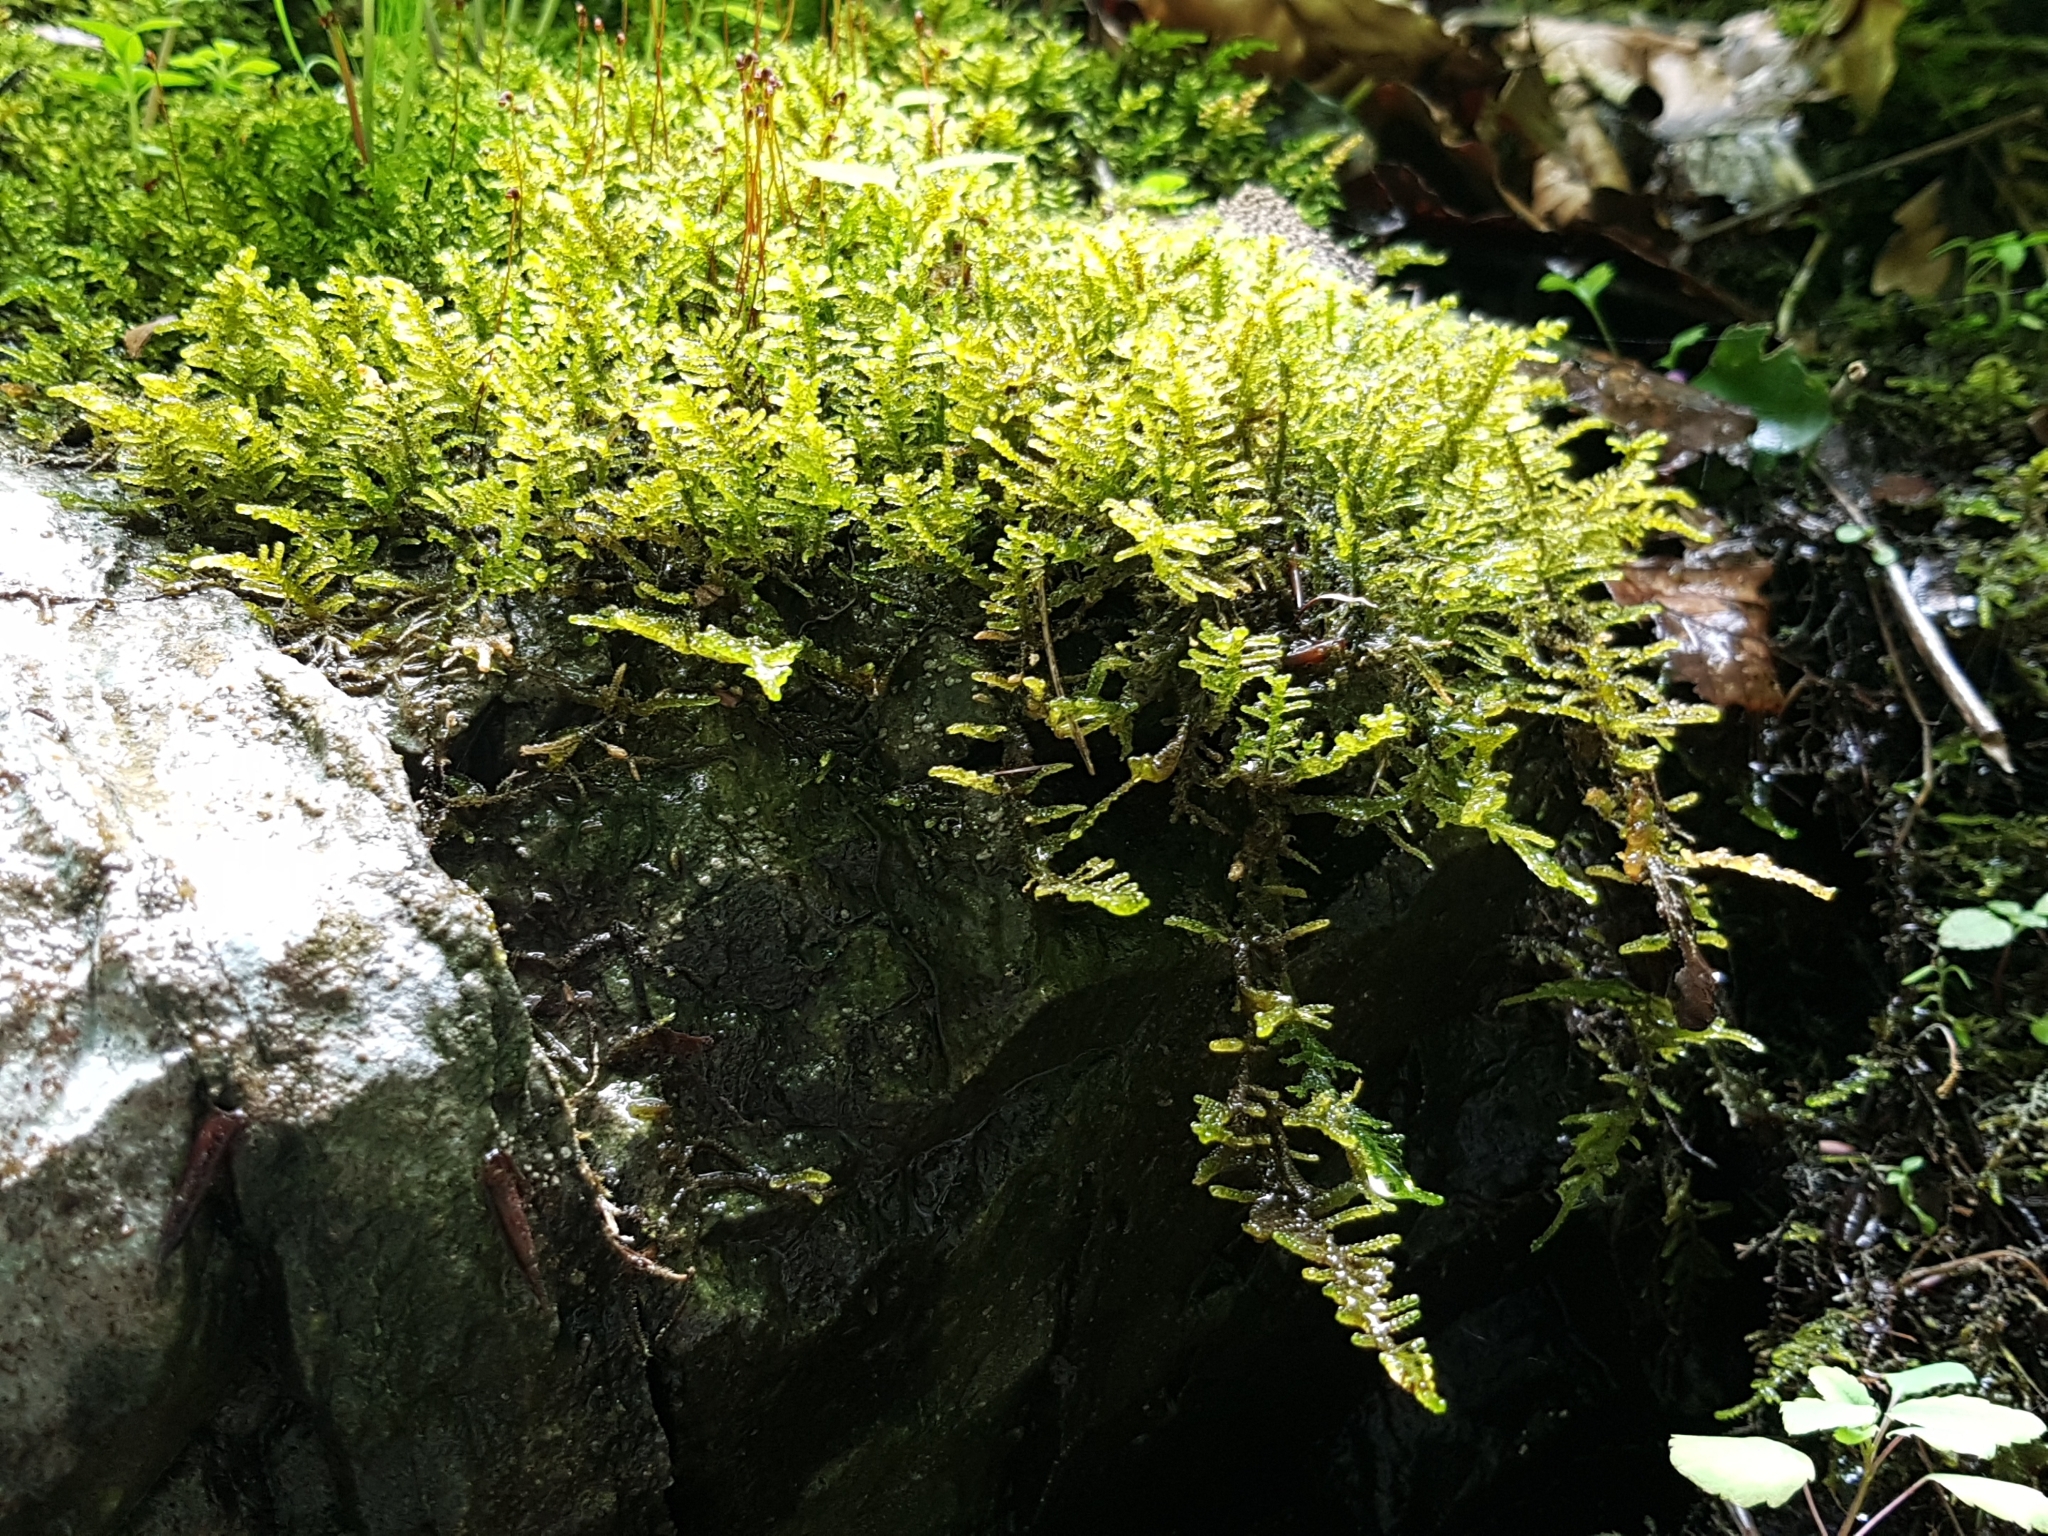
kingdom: Plantae
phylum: Bryophyta
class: Bryopsida
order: Hypnales
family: Amblystegiaceae
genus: Palustriella
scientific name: Palustriella commutata
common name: Curled hook-moss
